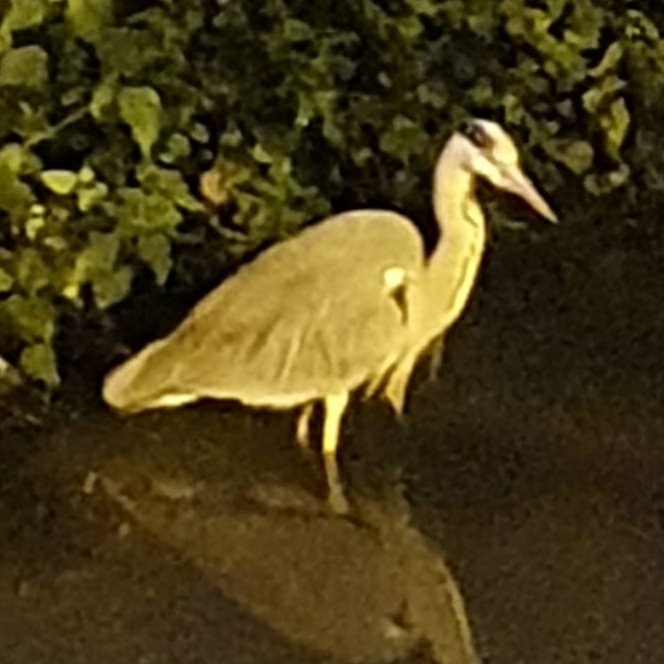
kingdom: Animalia
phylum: Chordata
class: Aves
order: Pelecaniformes
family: Ardeidae
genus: Ardea
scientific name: Ardea cinerea
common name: Grey heron
